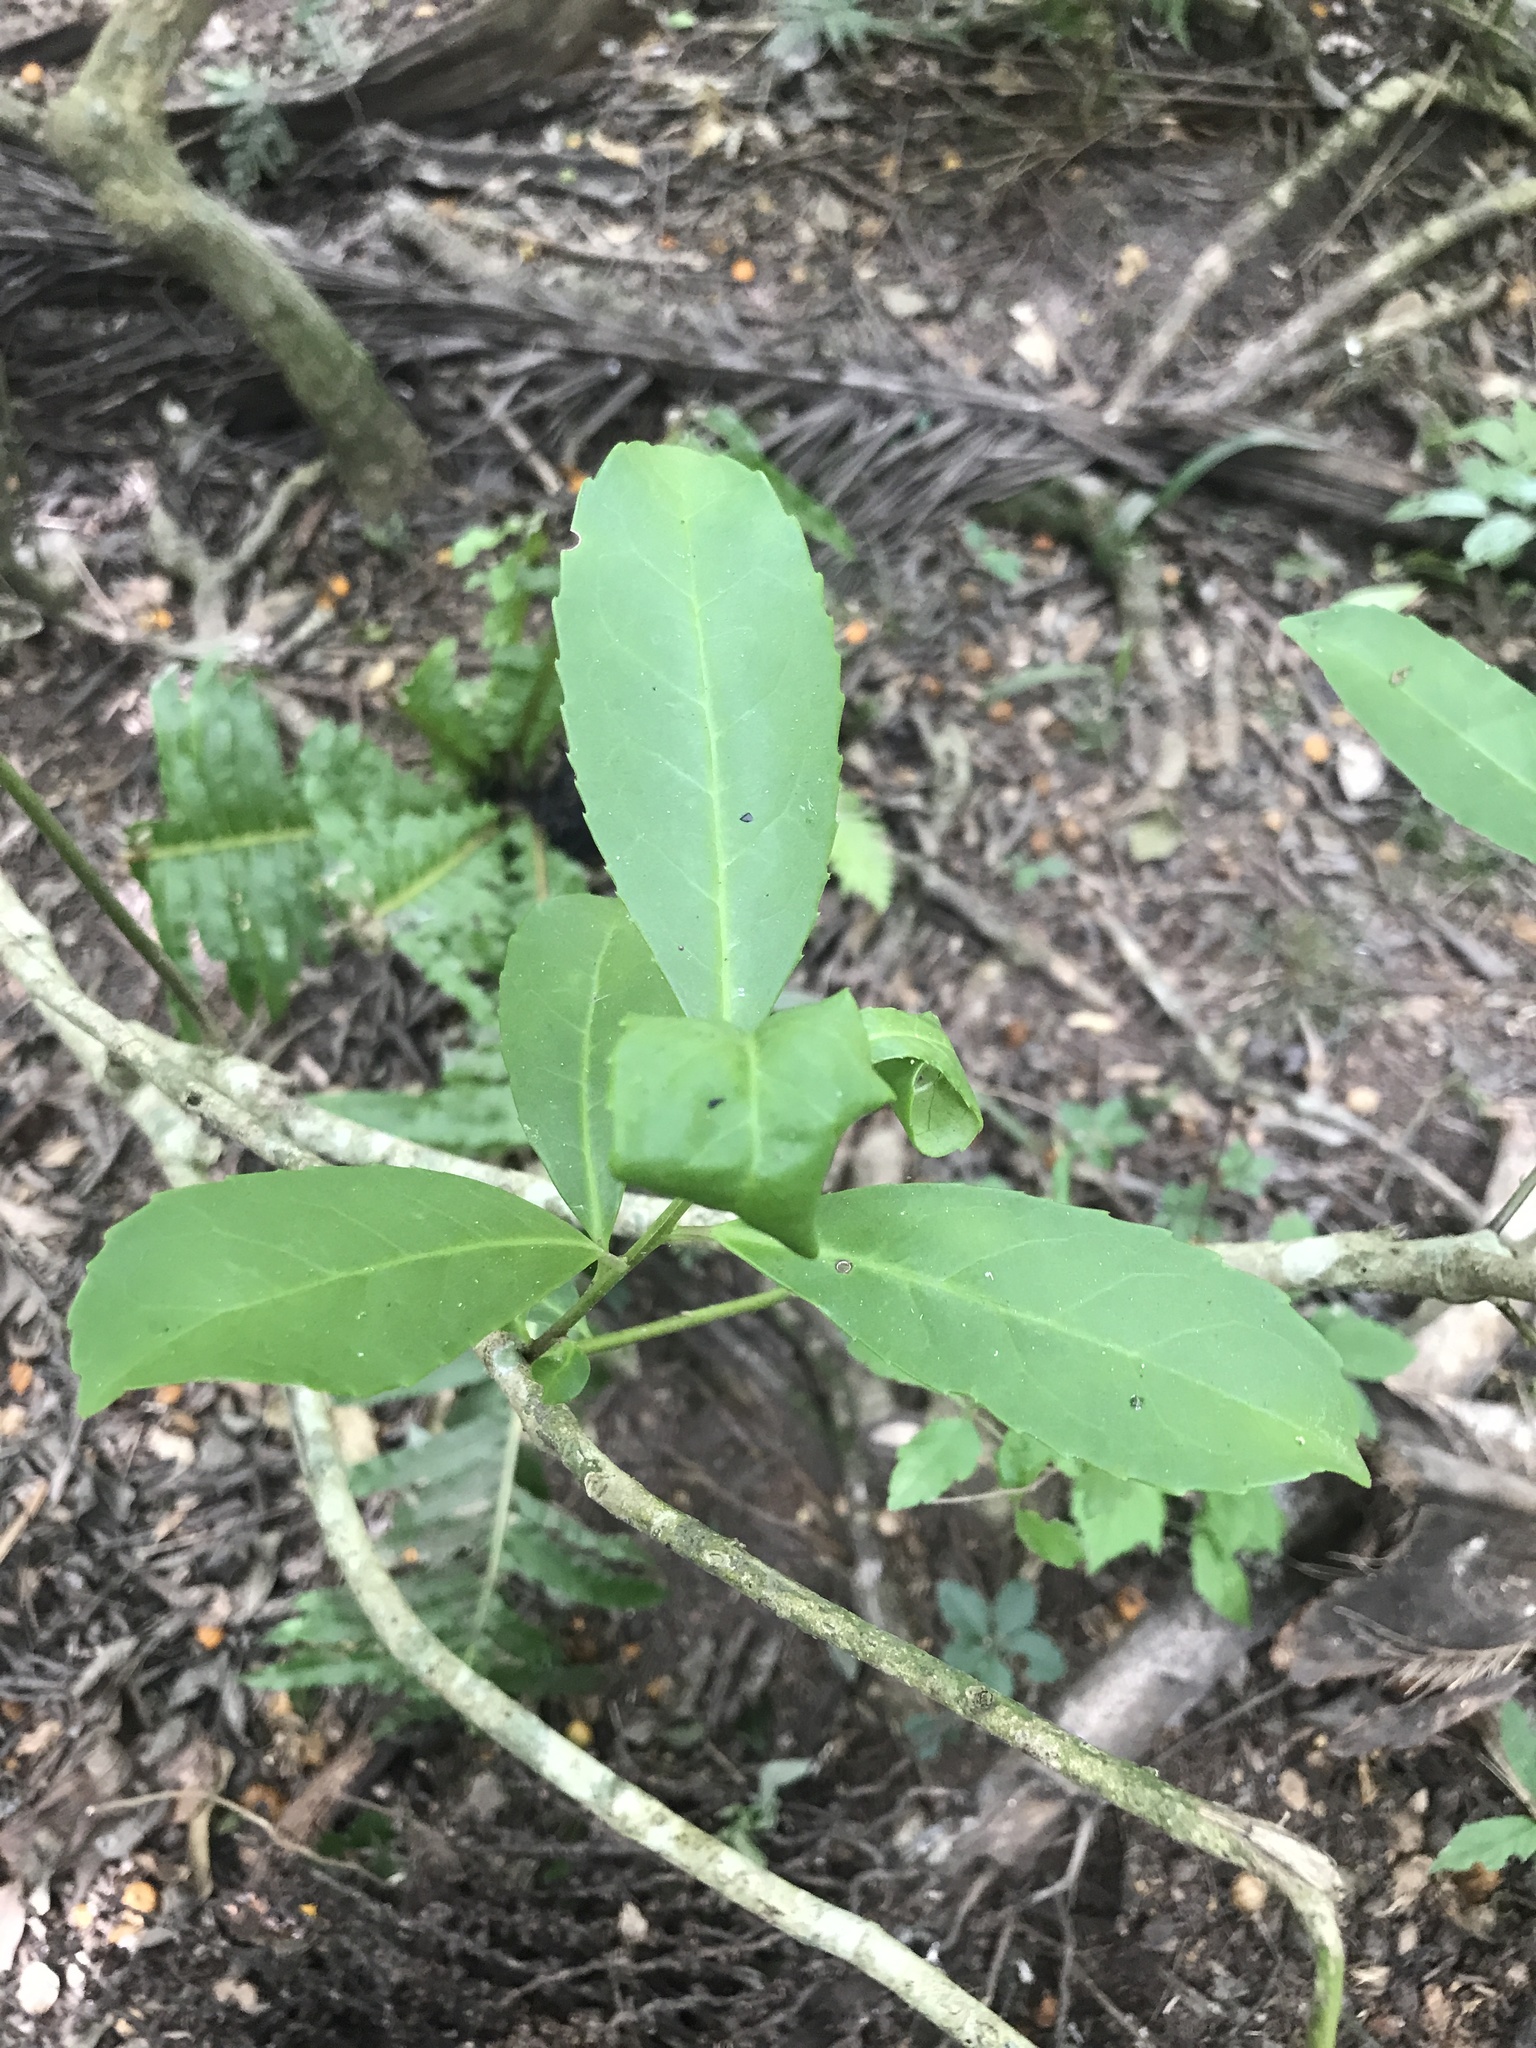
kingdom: Plantae
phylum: Tracheophyta
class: Magnoliopsida
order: Aquifoliales
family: Aquifoliaceae
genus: Ilex
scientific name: Ilex paraguariensis
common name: Paraguay tea
